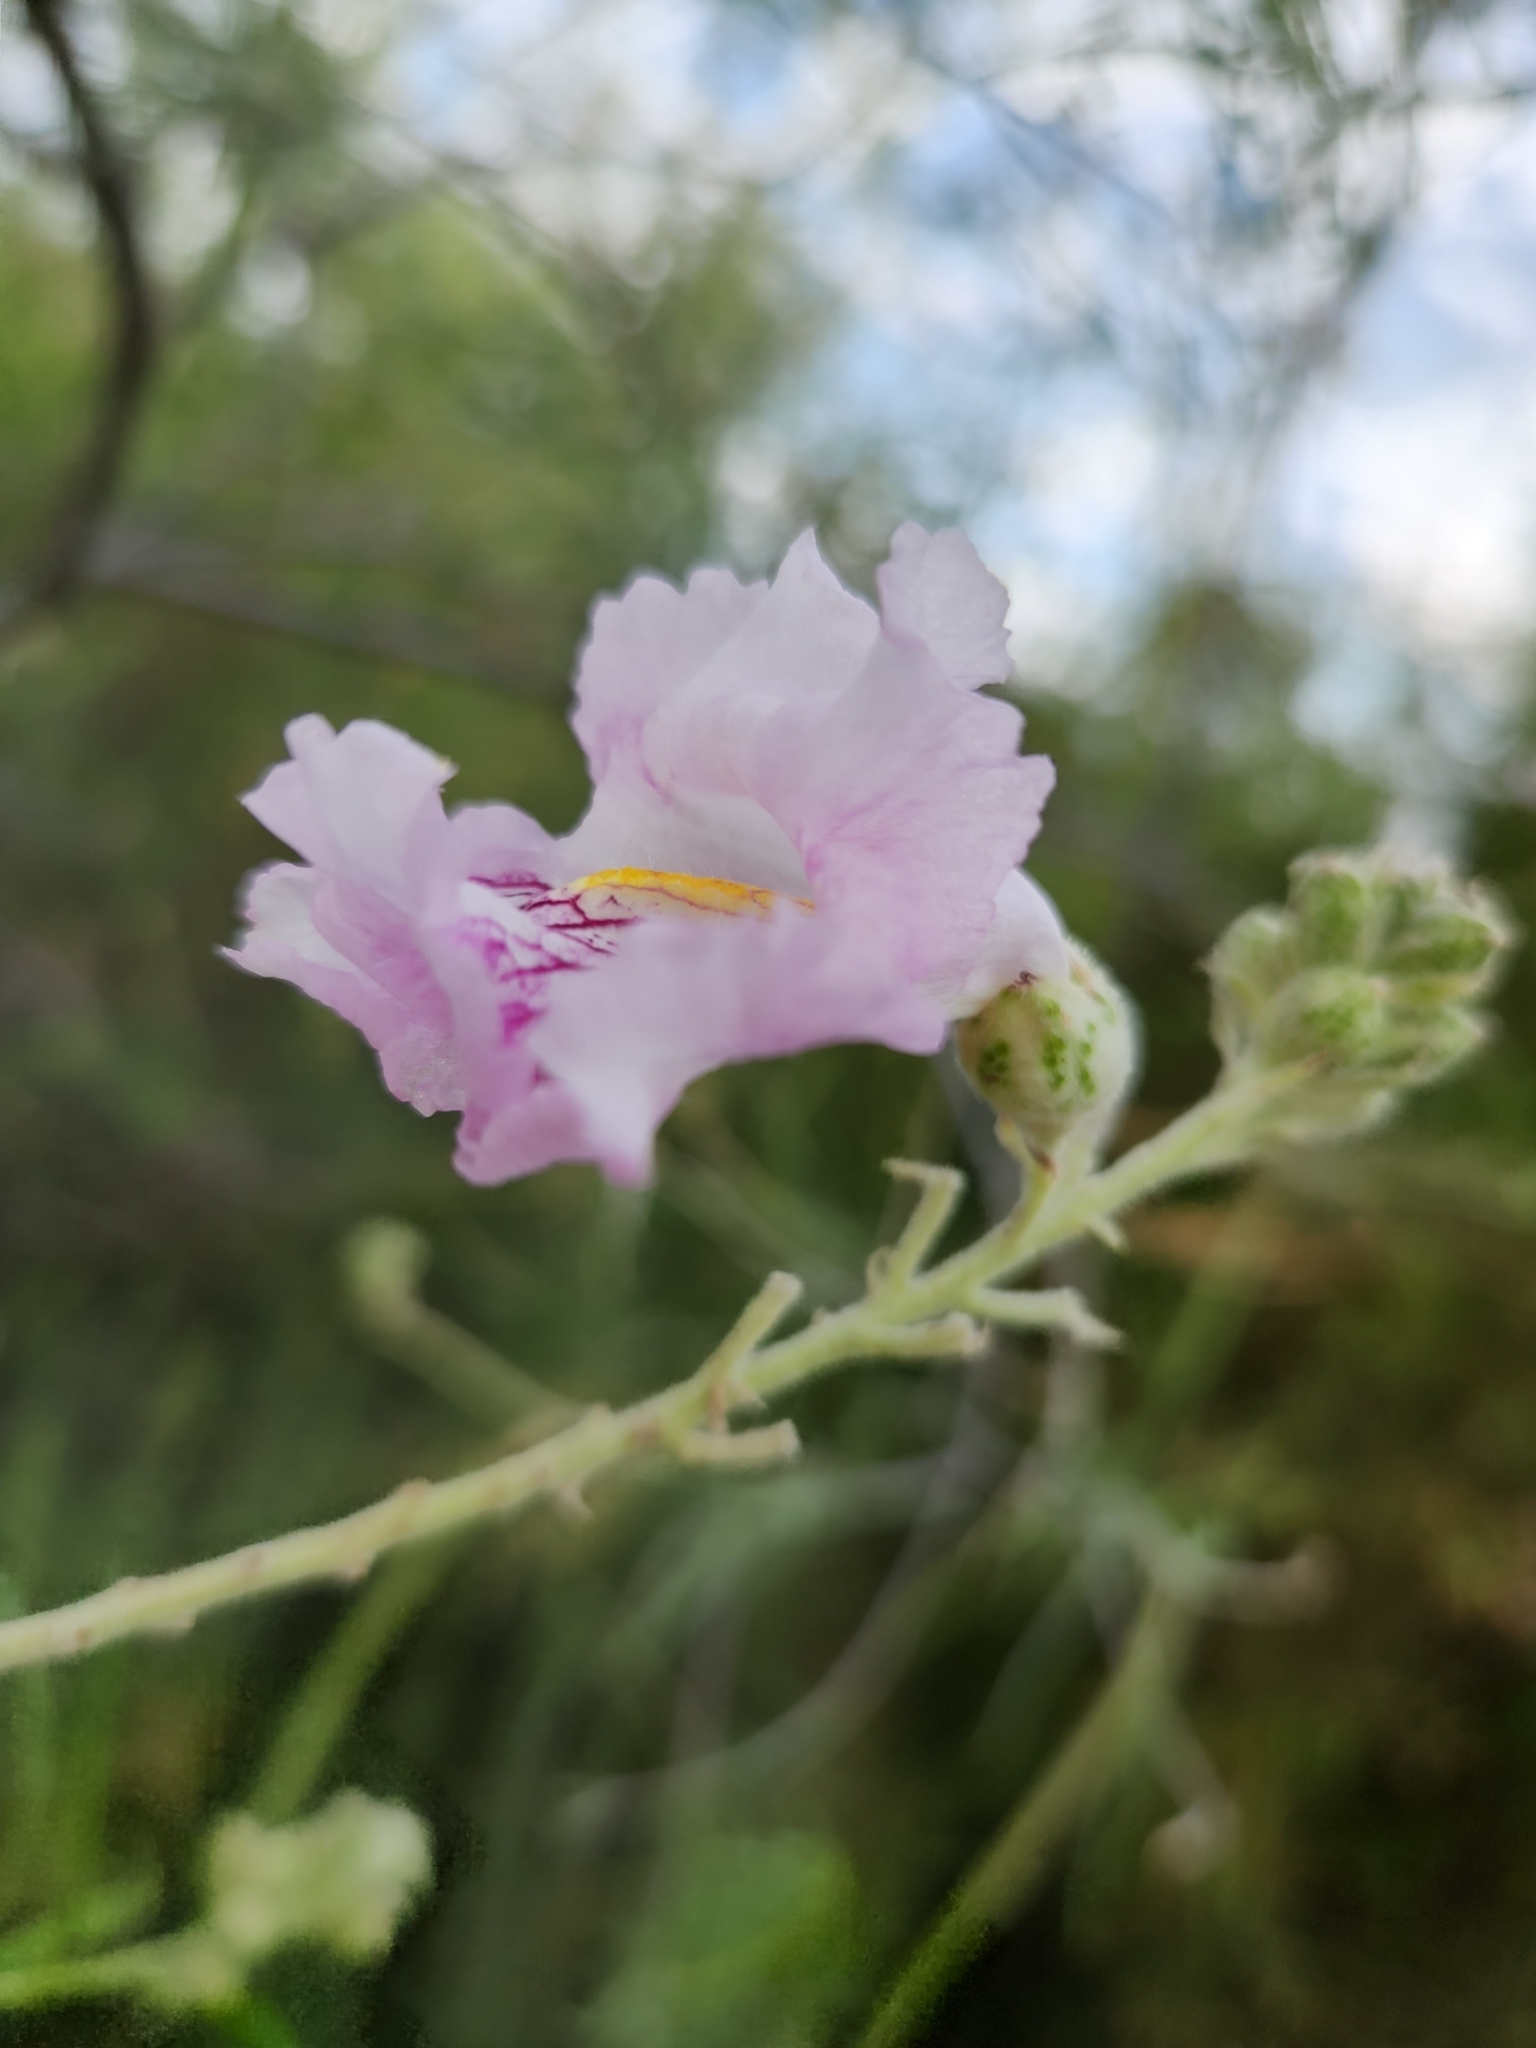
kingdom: Plantae
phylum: Tracheophyta
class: Magnoliopsida
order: Lamiales
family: Bignoniaceae
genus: Chilopsis
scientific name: Chilopsis linearis
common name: Desert-willow
